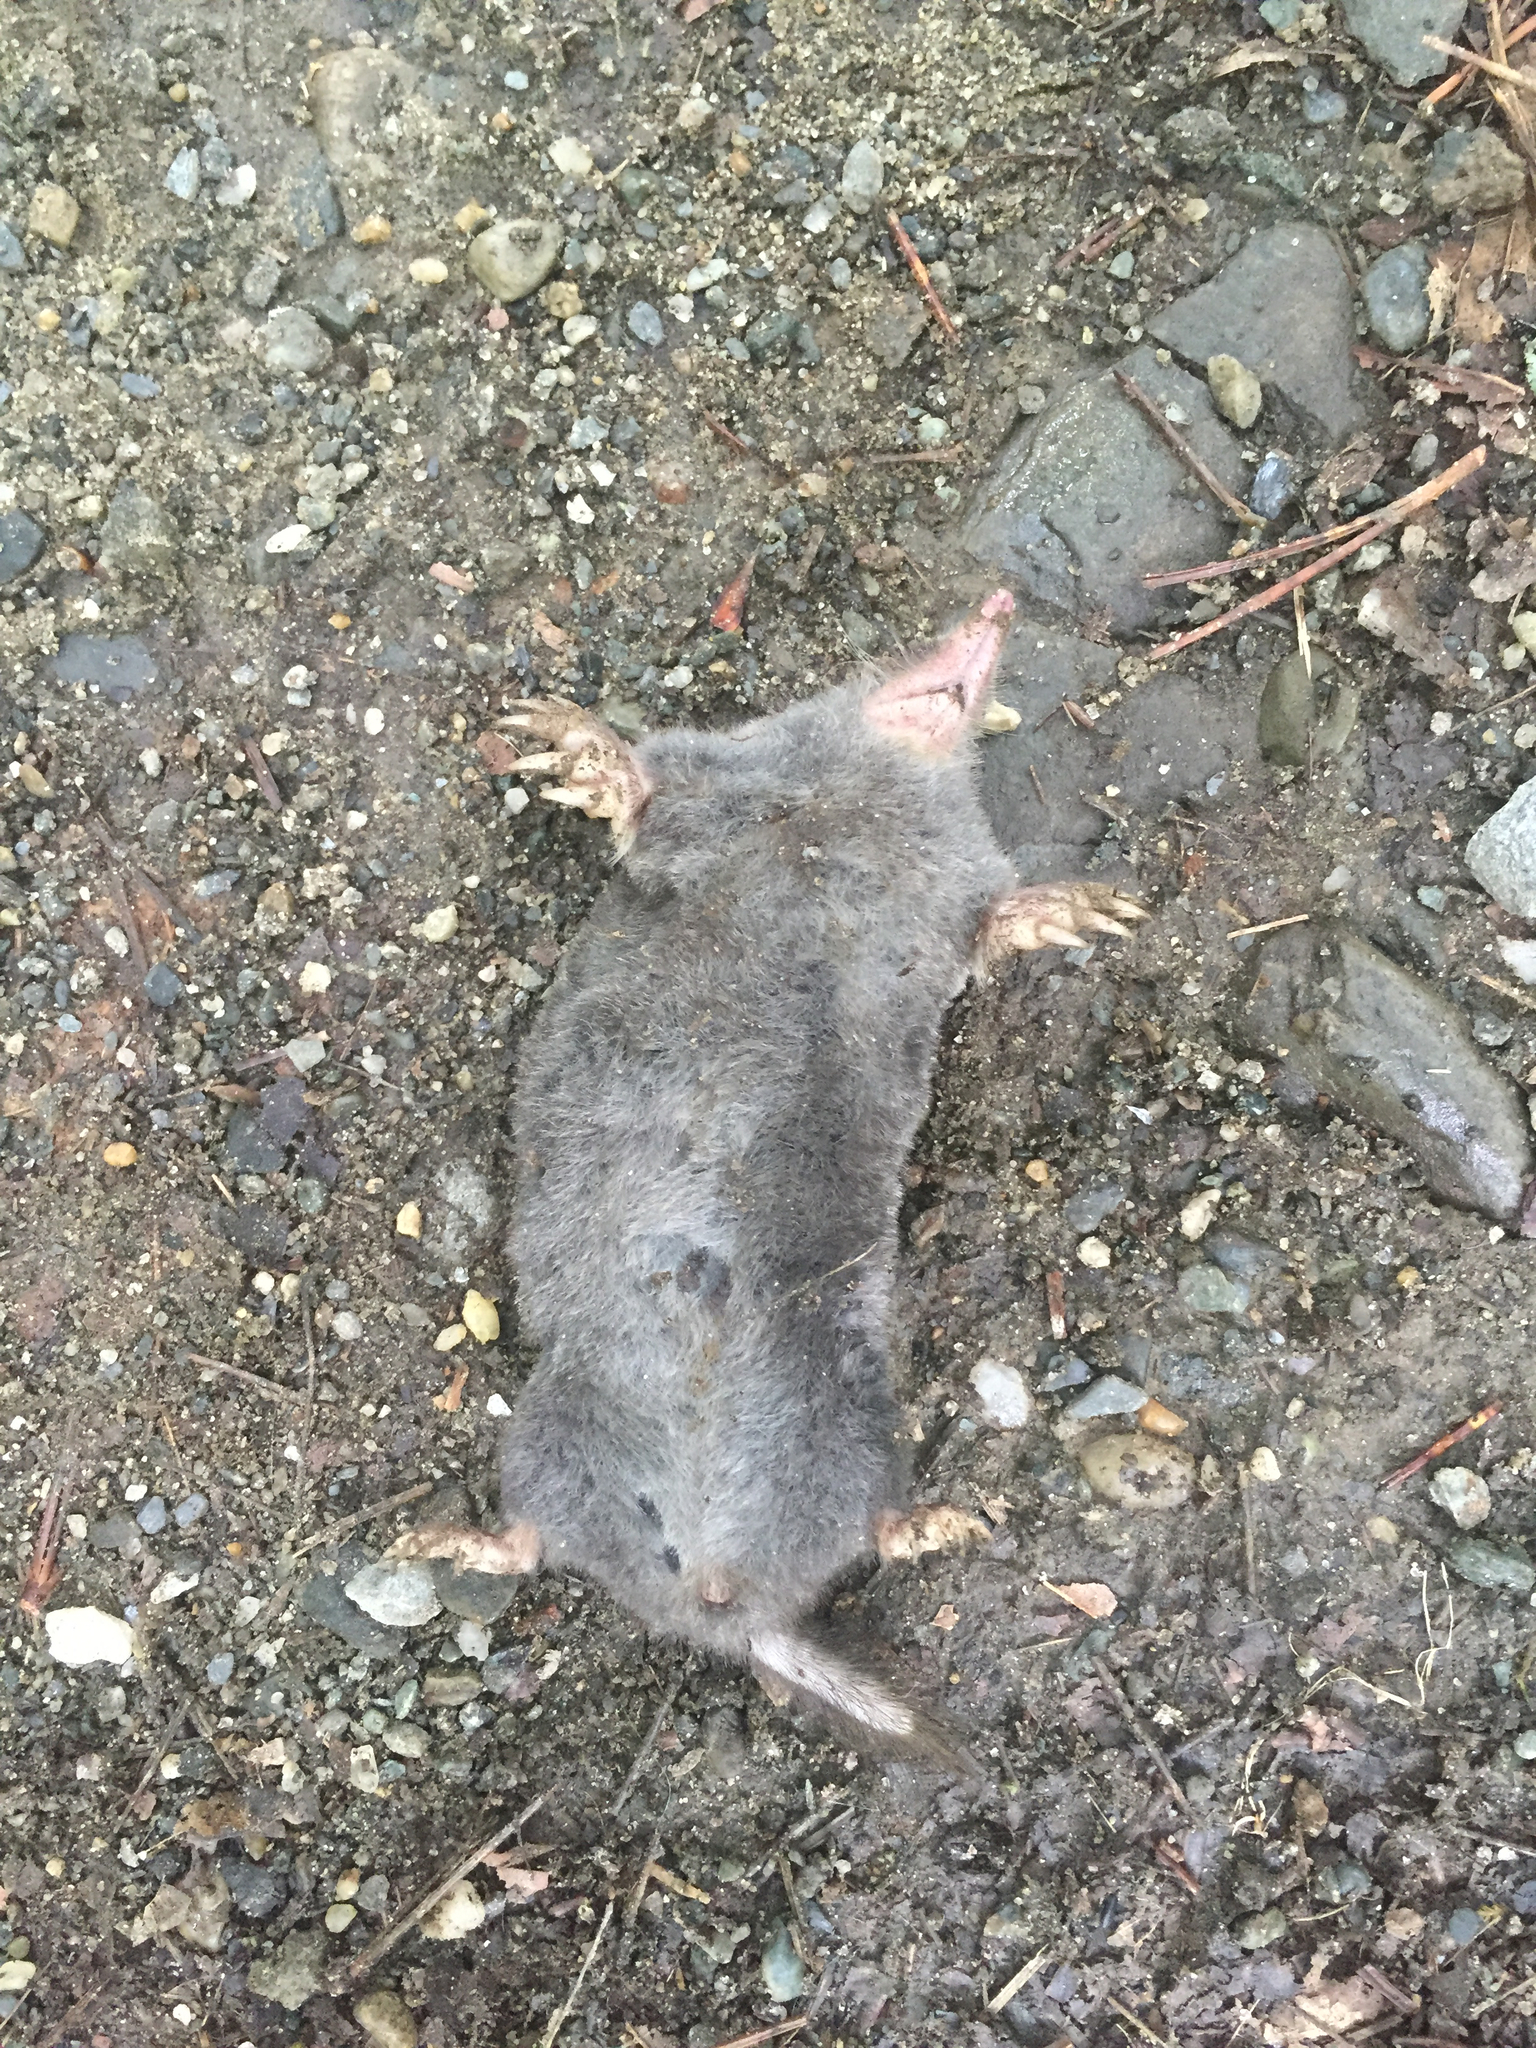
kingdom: Animalia
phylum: Chordata
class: Mammalia
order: Soricomorpha
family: Talpidae
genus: Parascalops
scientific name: Parascalops breweri
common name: Hairy-tailed mole
